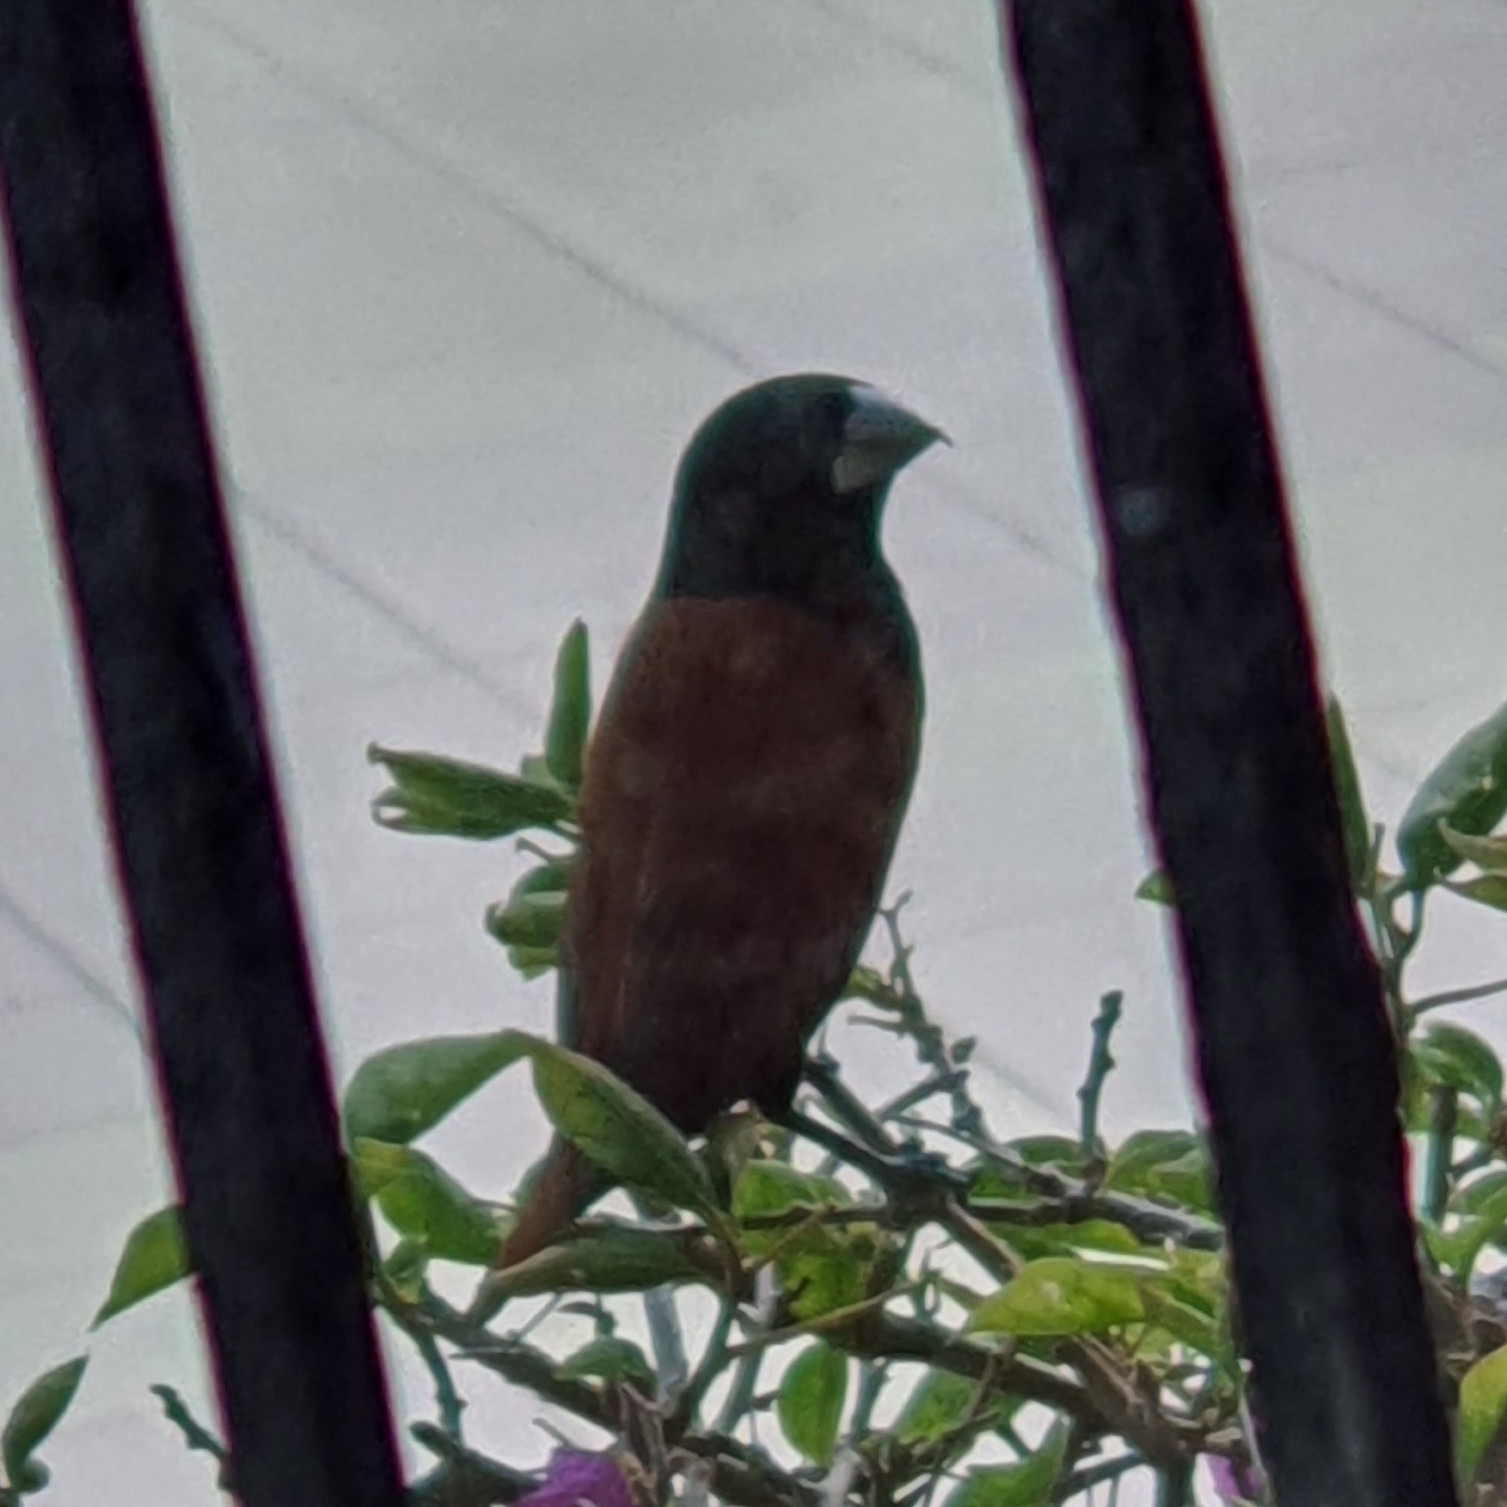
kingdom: Animalia
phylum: Chordata
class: Aves
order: Passeriformes
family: Estrildidae
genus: Lonchura
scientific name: Lonchura atricapilla
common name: Chestnut munia
